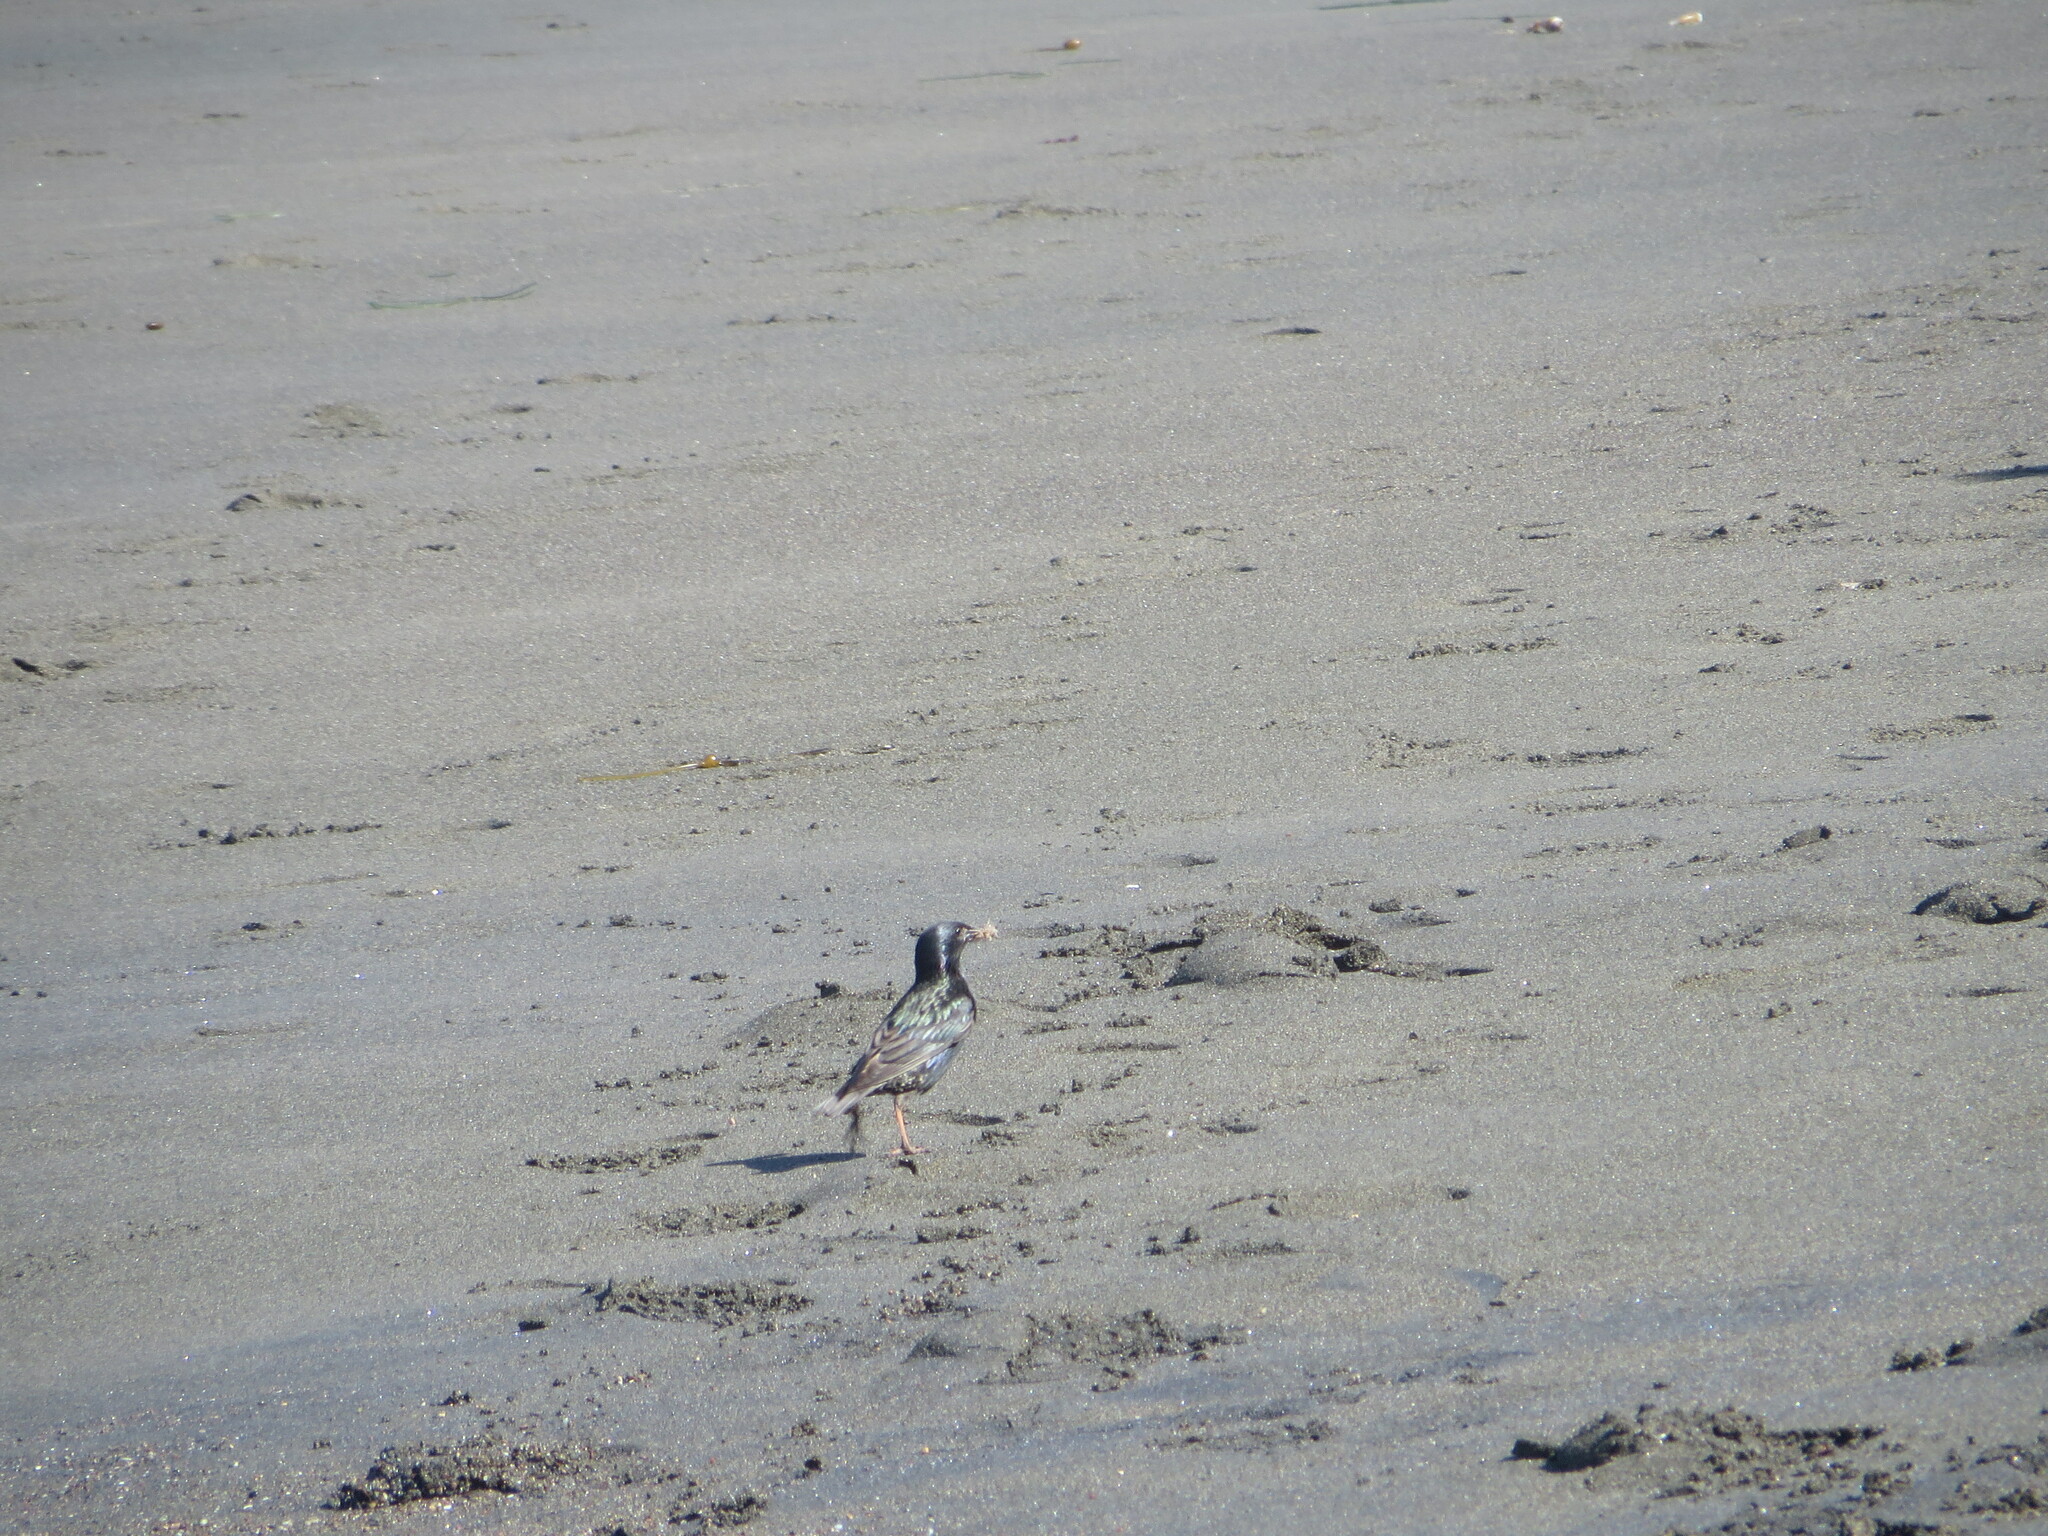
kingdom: Animalia
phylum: Chordata
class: Aves
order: Passeriformes
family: Sturnidae
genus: Sturnus
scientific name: Sturnus vulgaris
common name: Common starling
